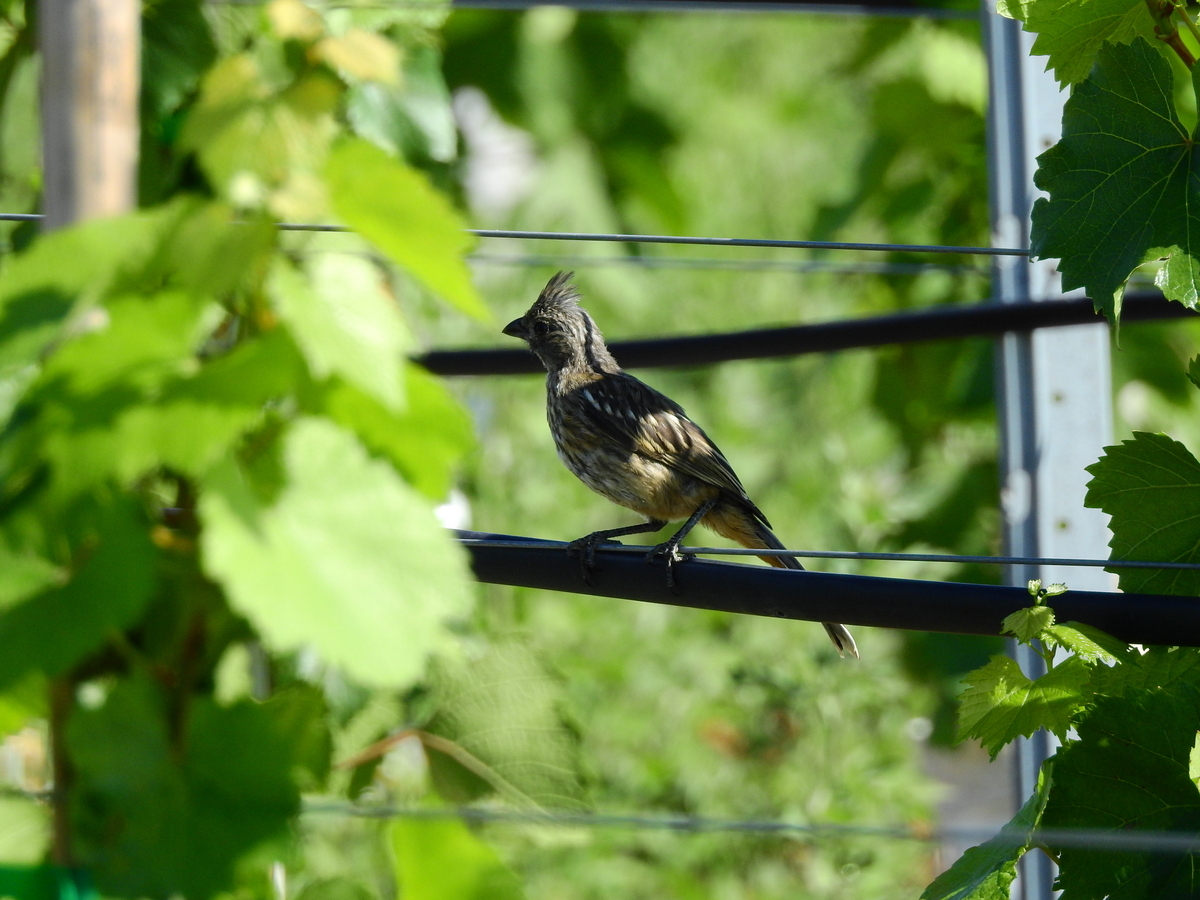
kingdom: Animalia
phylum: Chordata
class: Aves
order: Passeriformes
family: Cotingidae
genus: Phytotoma
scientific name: Phytotoma rutila
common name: White-tipped plantcutter
